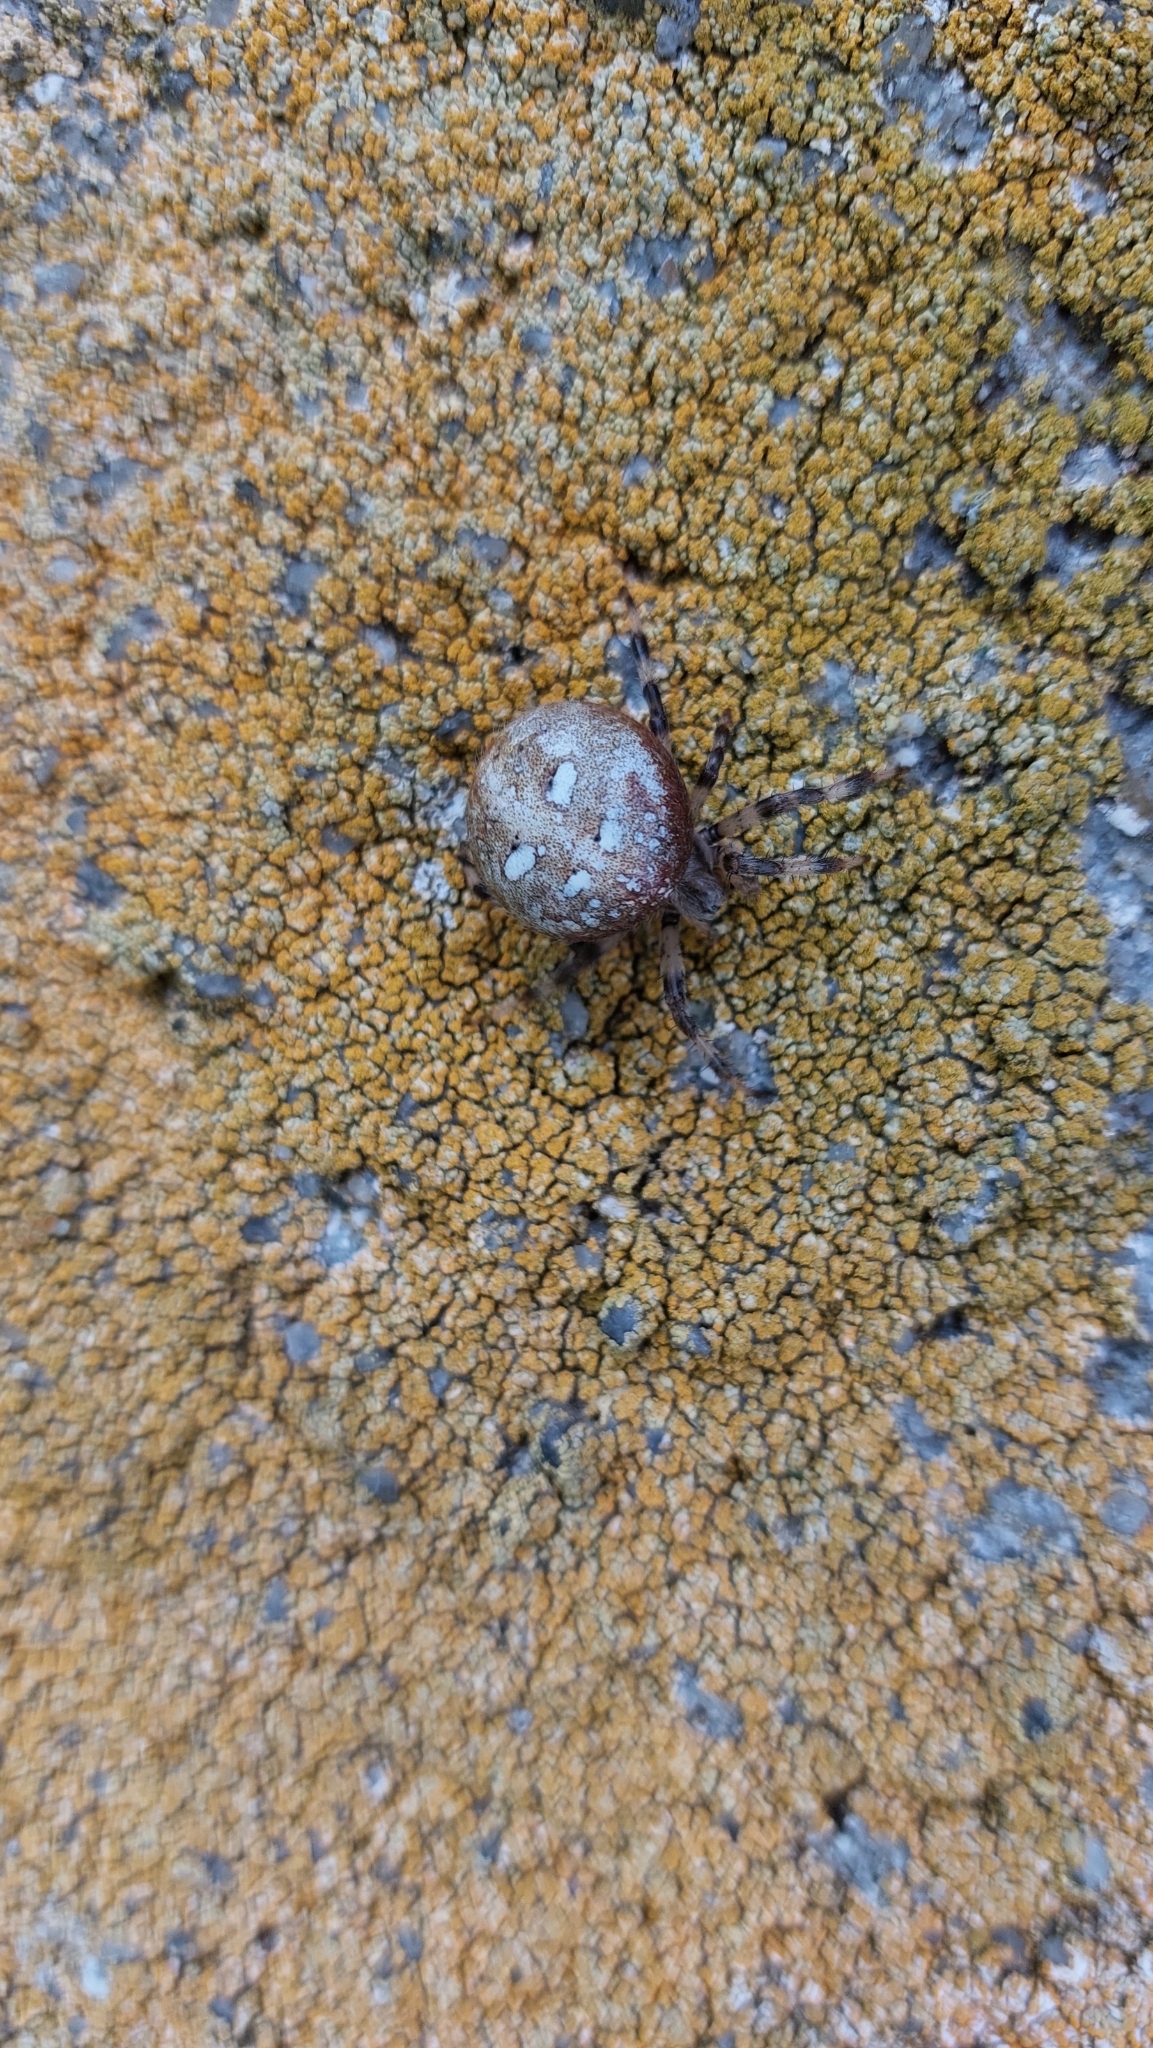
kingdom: Animalia
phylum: Arthropoda
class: Arachnida
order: Araneae
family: Araneidae
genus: Araneus
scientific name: Araneus quadratus
